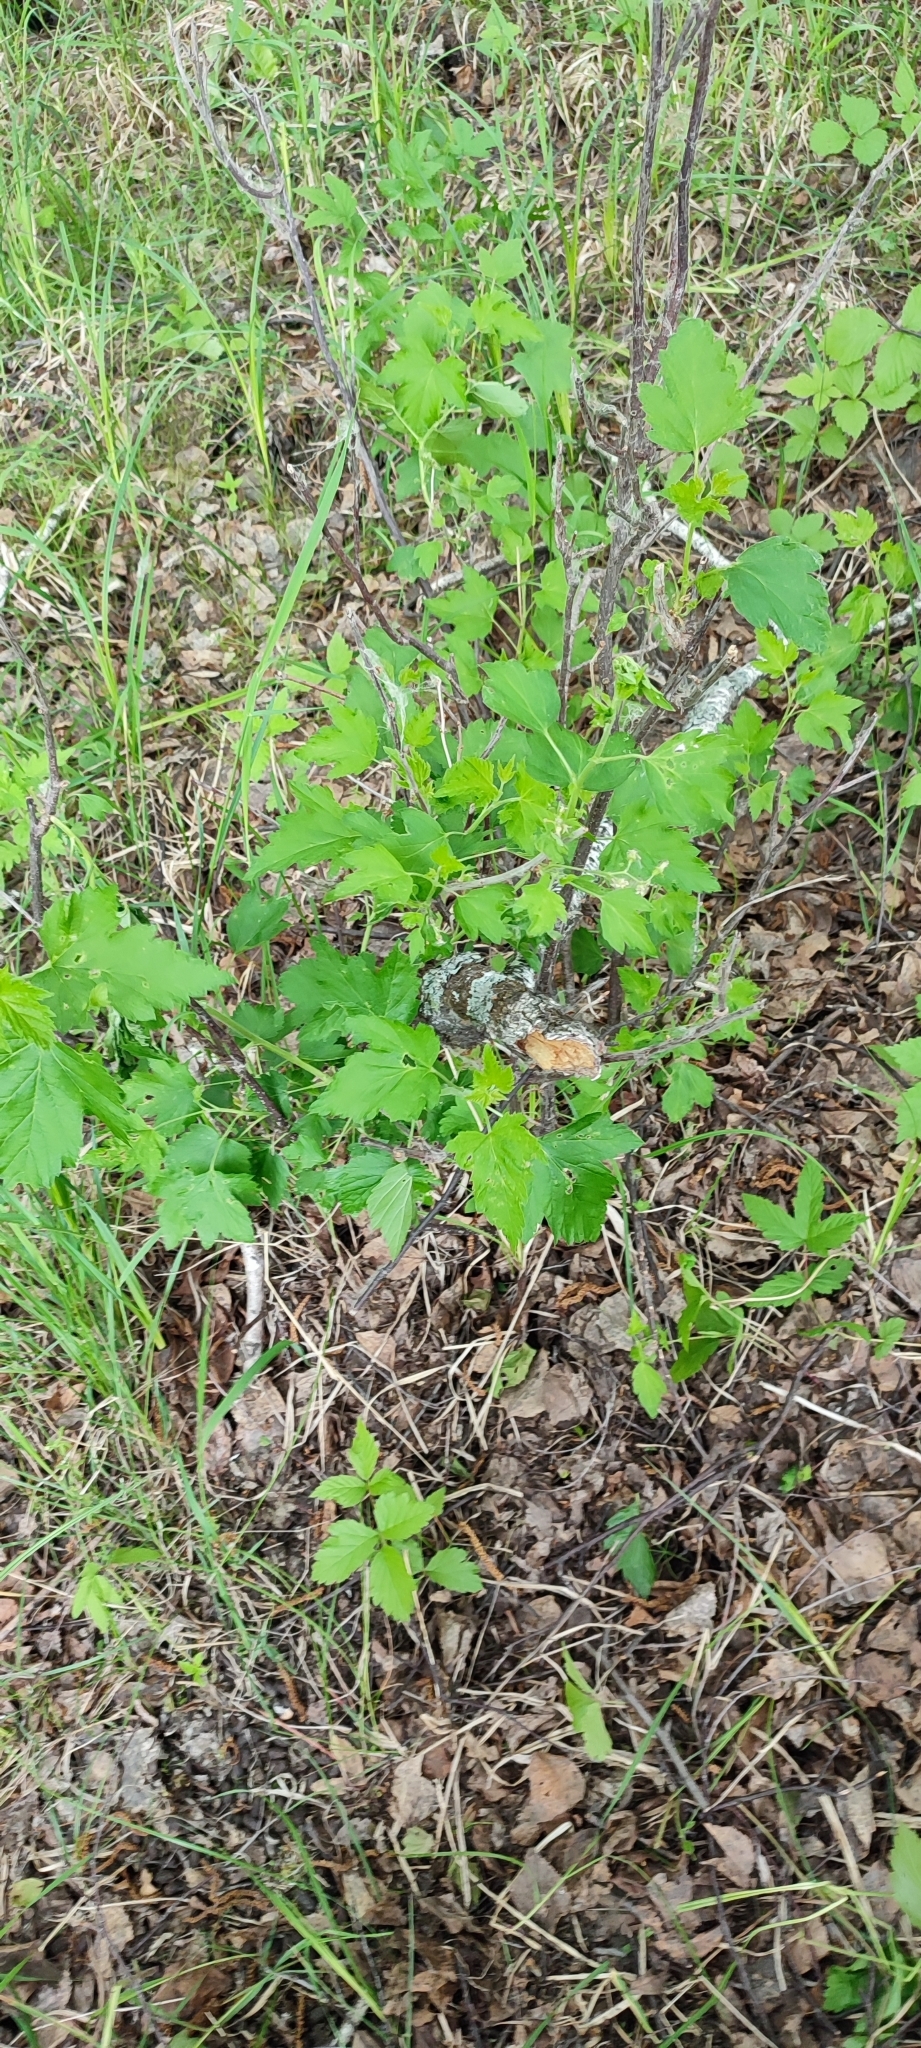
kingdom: Plantae
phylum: Tracheophyta
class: Magnoliopsida
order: Saxifragales
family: Grossulariaceae
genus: Ribes
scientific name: Ribes nigrum
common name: Black currant
